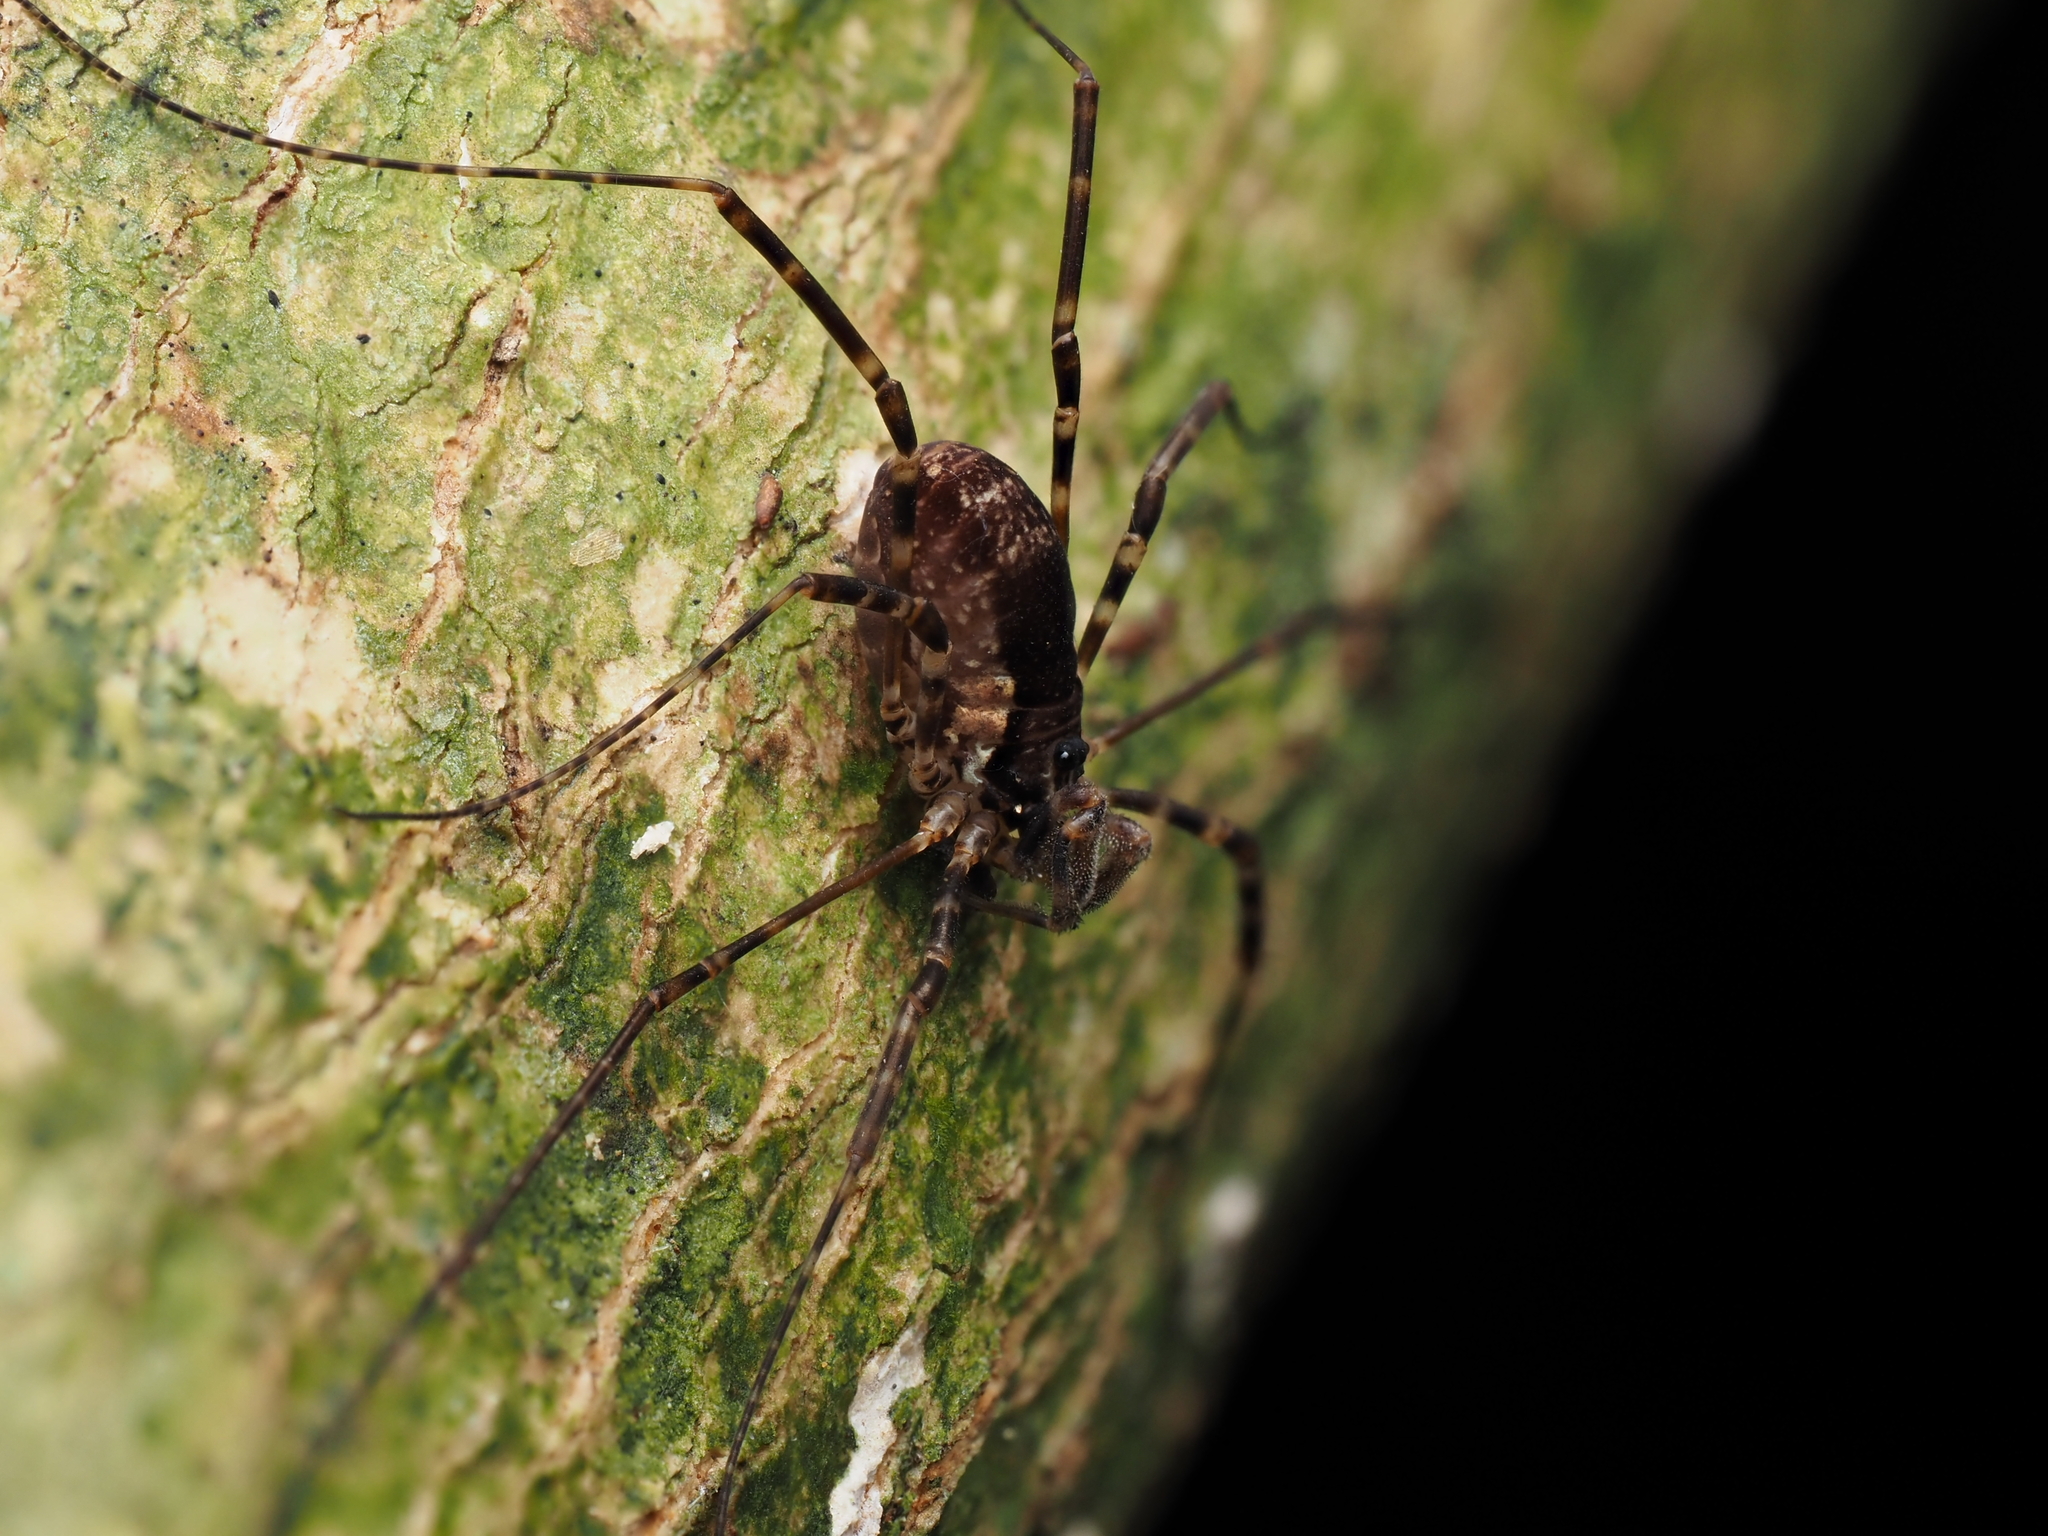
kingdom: Animalia
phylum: Arthropoda
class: Arachnida
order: Opiliones
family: Neopilionidae
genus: Megalopsalis
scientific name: Megalopsalis triascuta
